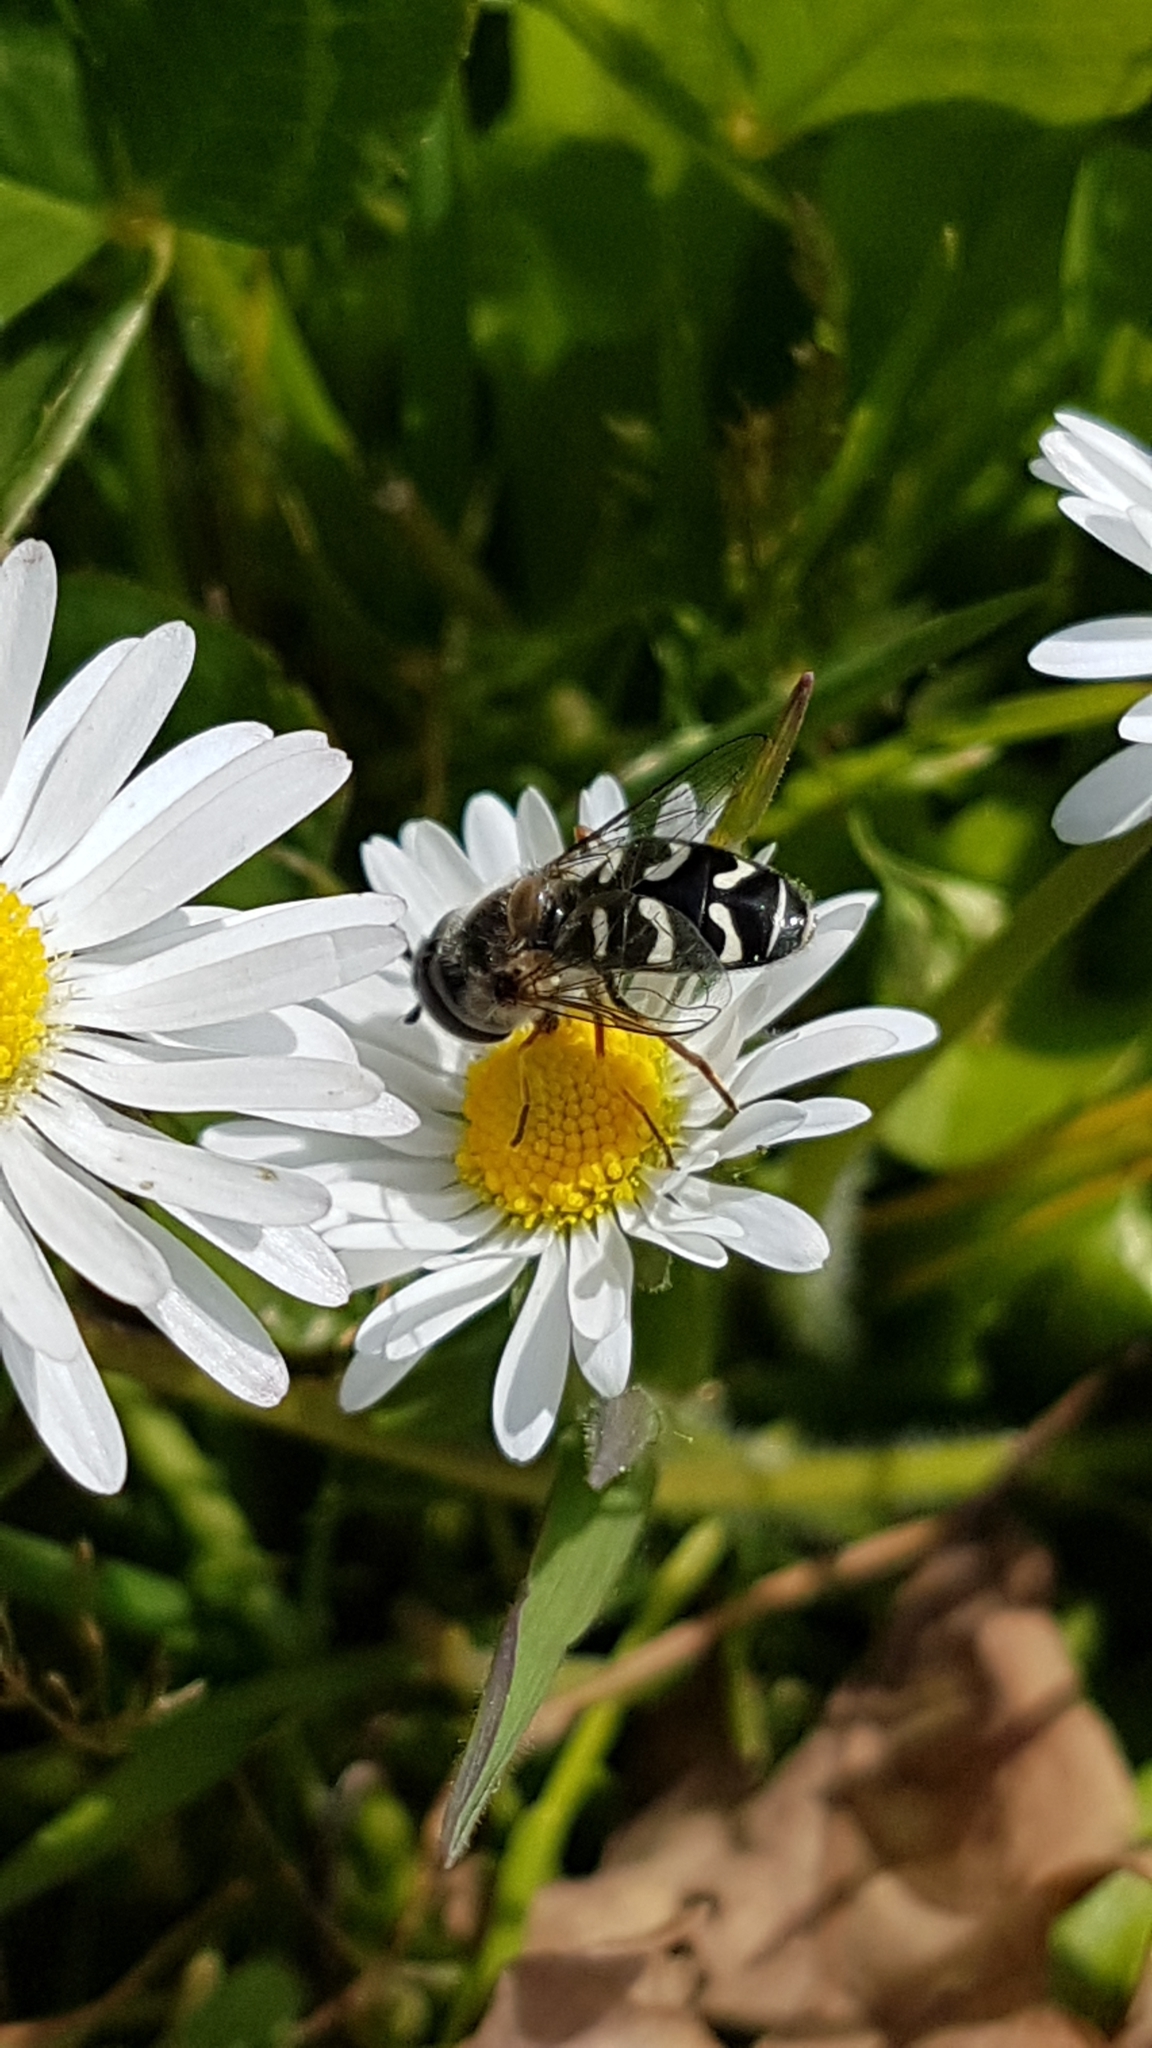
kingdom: Animalia
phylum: Arthropoda
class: Insecta
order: Diptera
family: Syrphidae
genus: Scaeva
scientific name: Scaeva affinis
